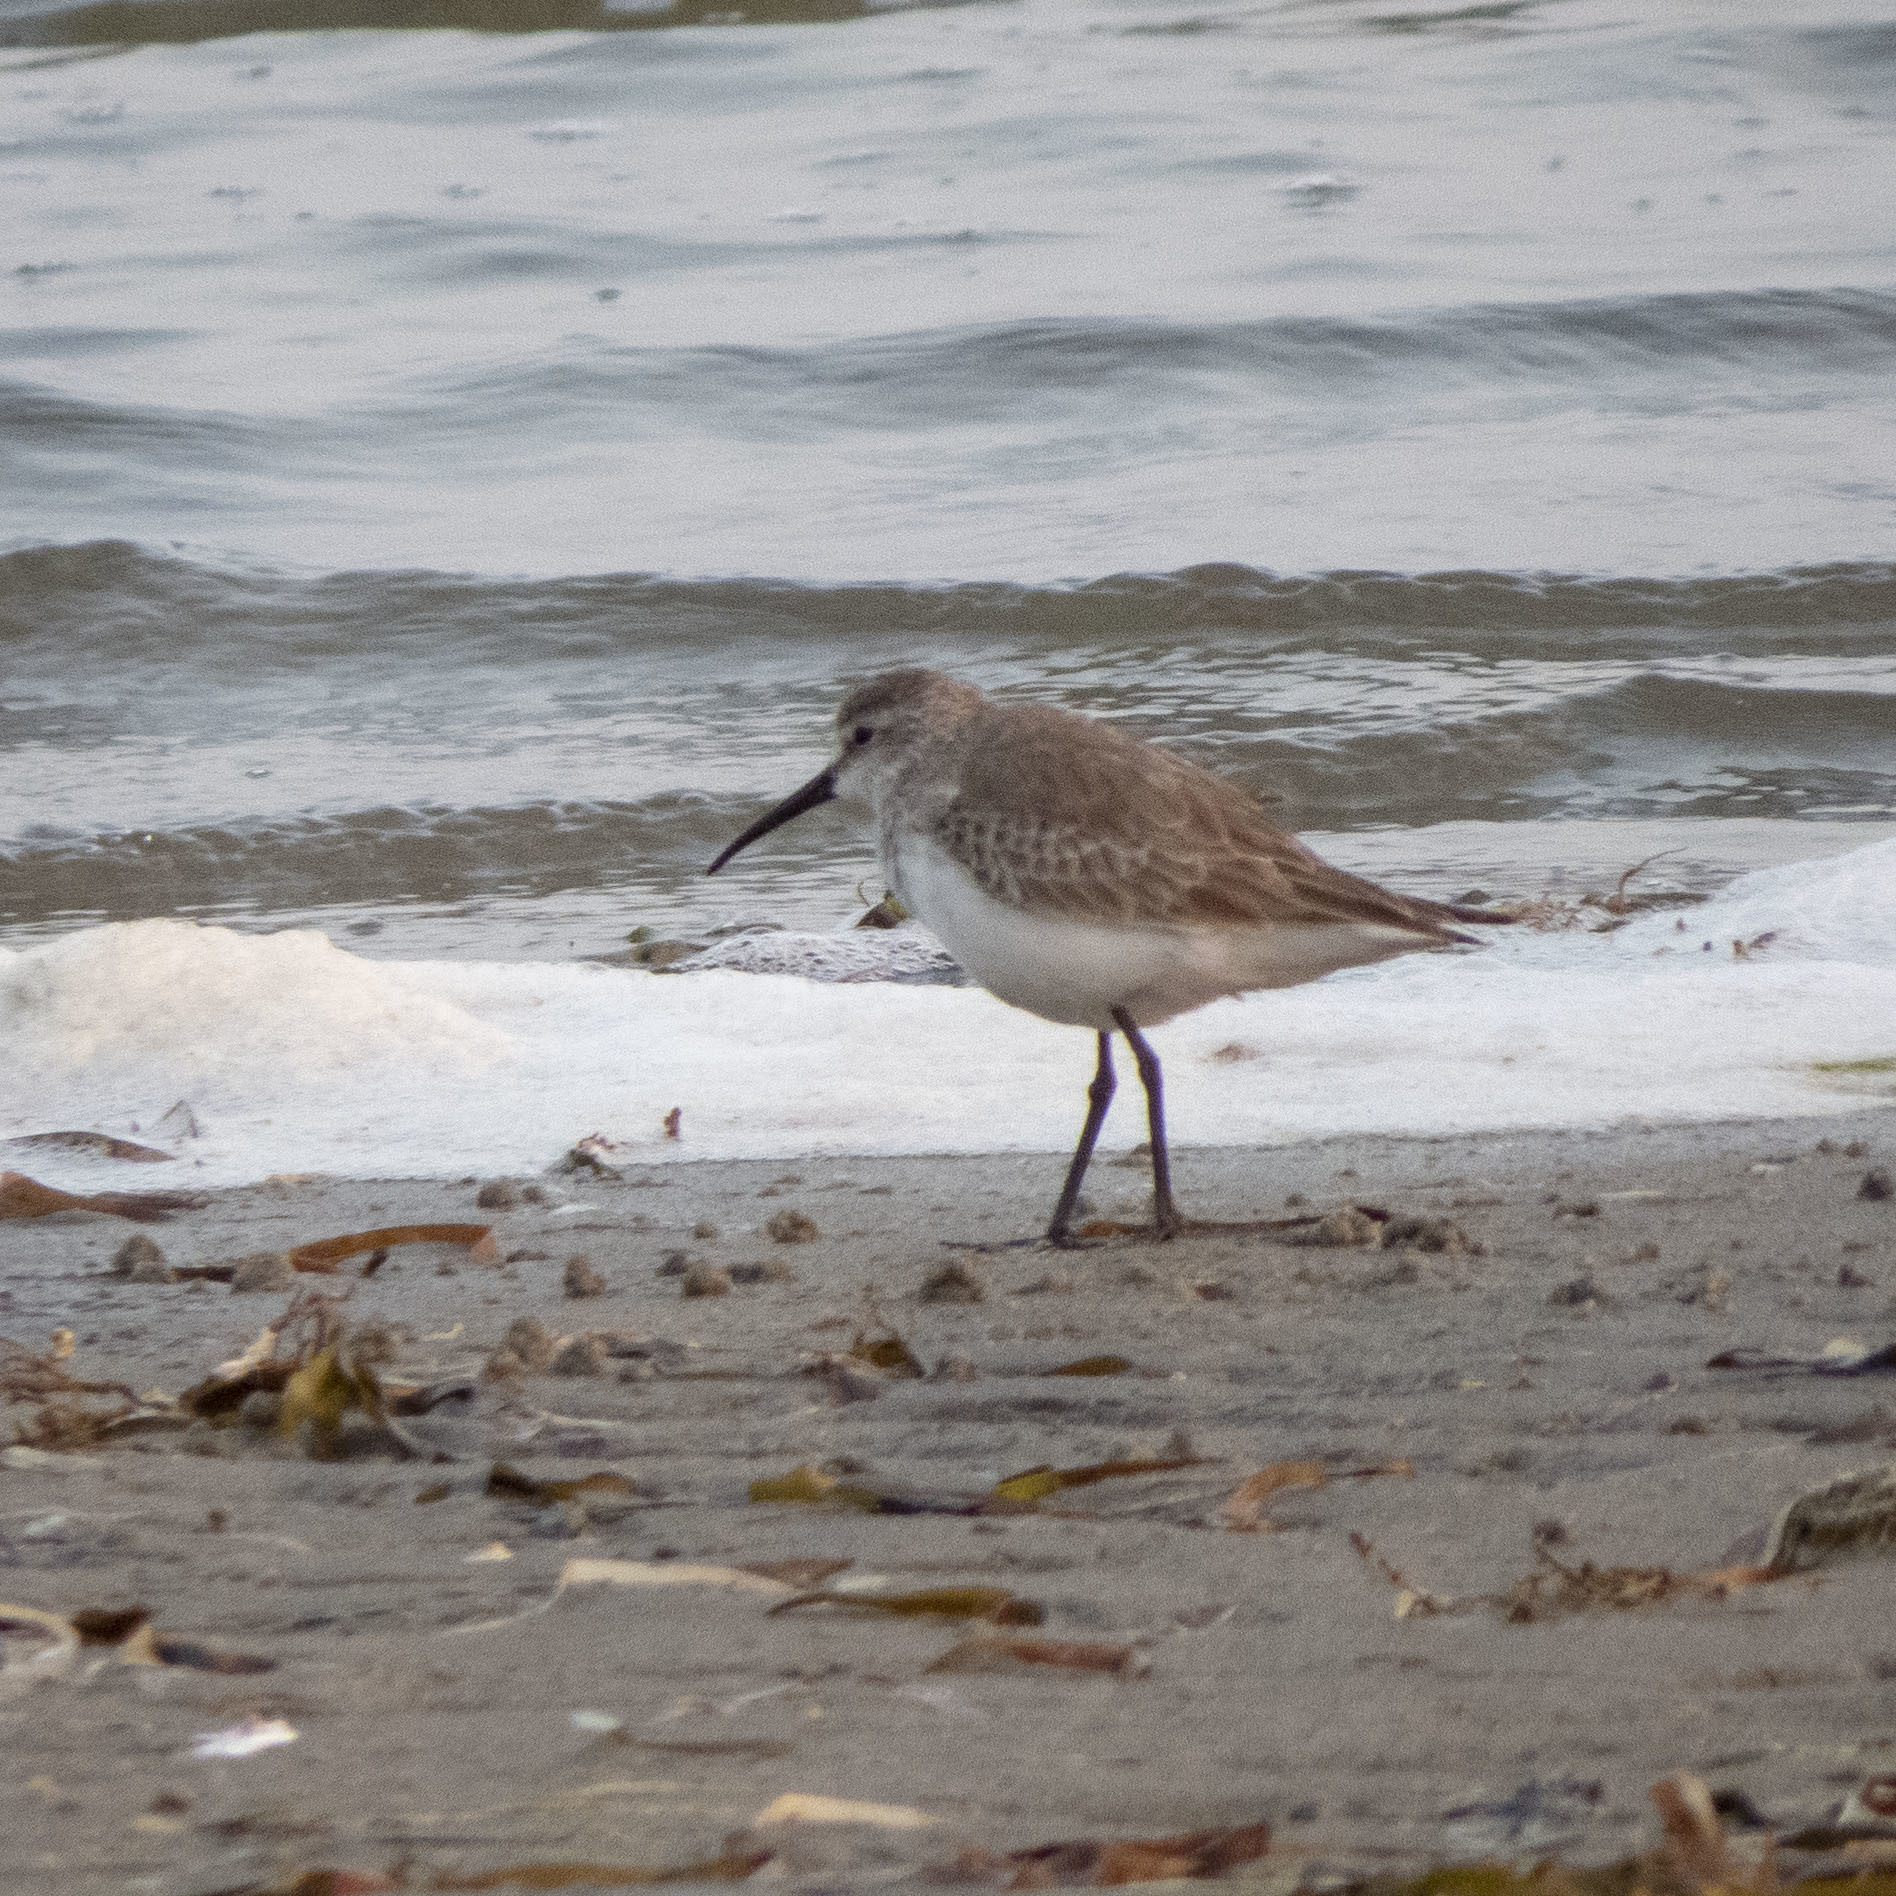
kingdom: Animalia
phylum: Chordata
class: Aves
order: Charadriiformes
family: Scolopacidae
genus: Calidris
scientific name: Calidris ferruginea
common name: Curlew sandpiper
